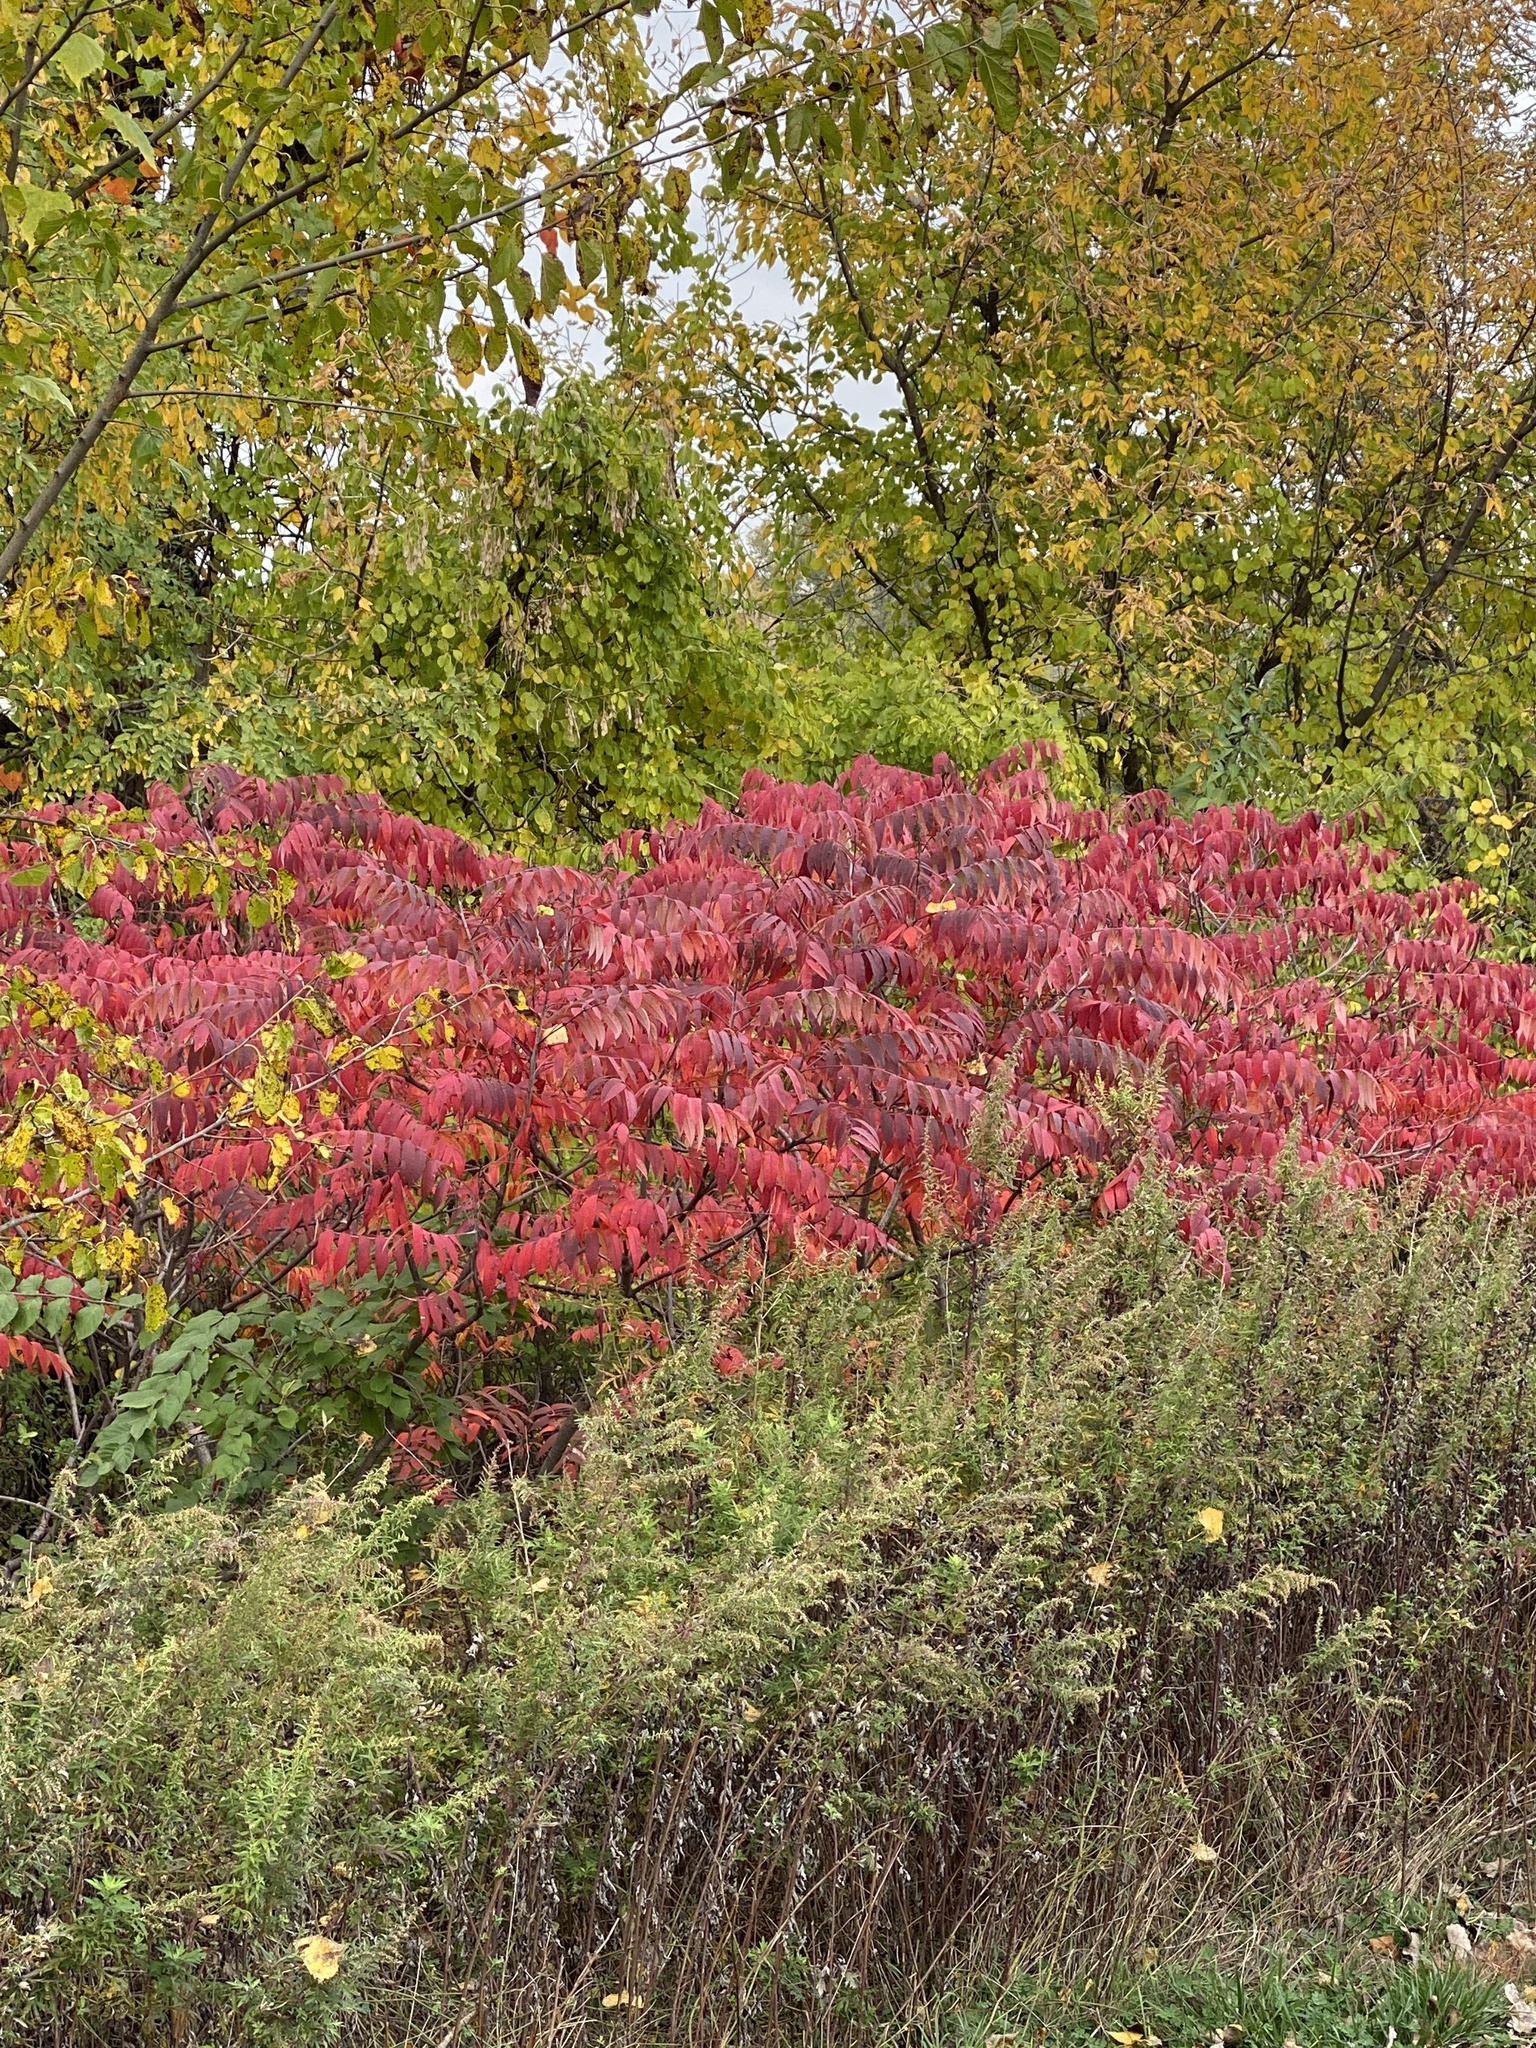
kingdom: Plantae
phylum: Tracheophyta
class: Magnoliopsida
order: Sapindales
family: Anacardiaceae
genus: Rhus
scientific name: Rhus glabra
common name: Scarlet sumac
